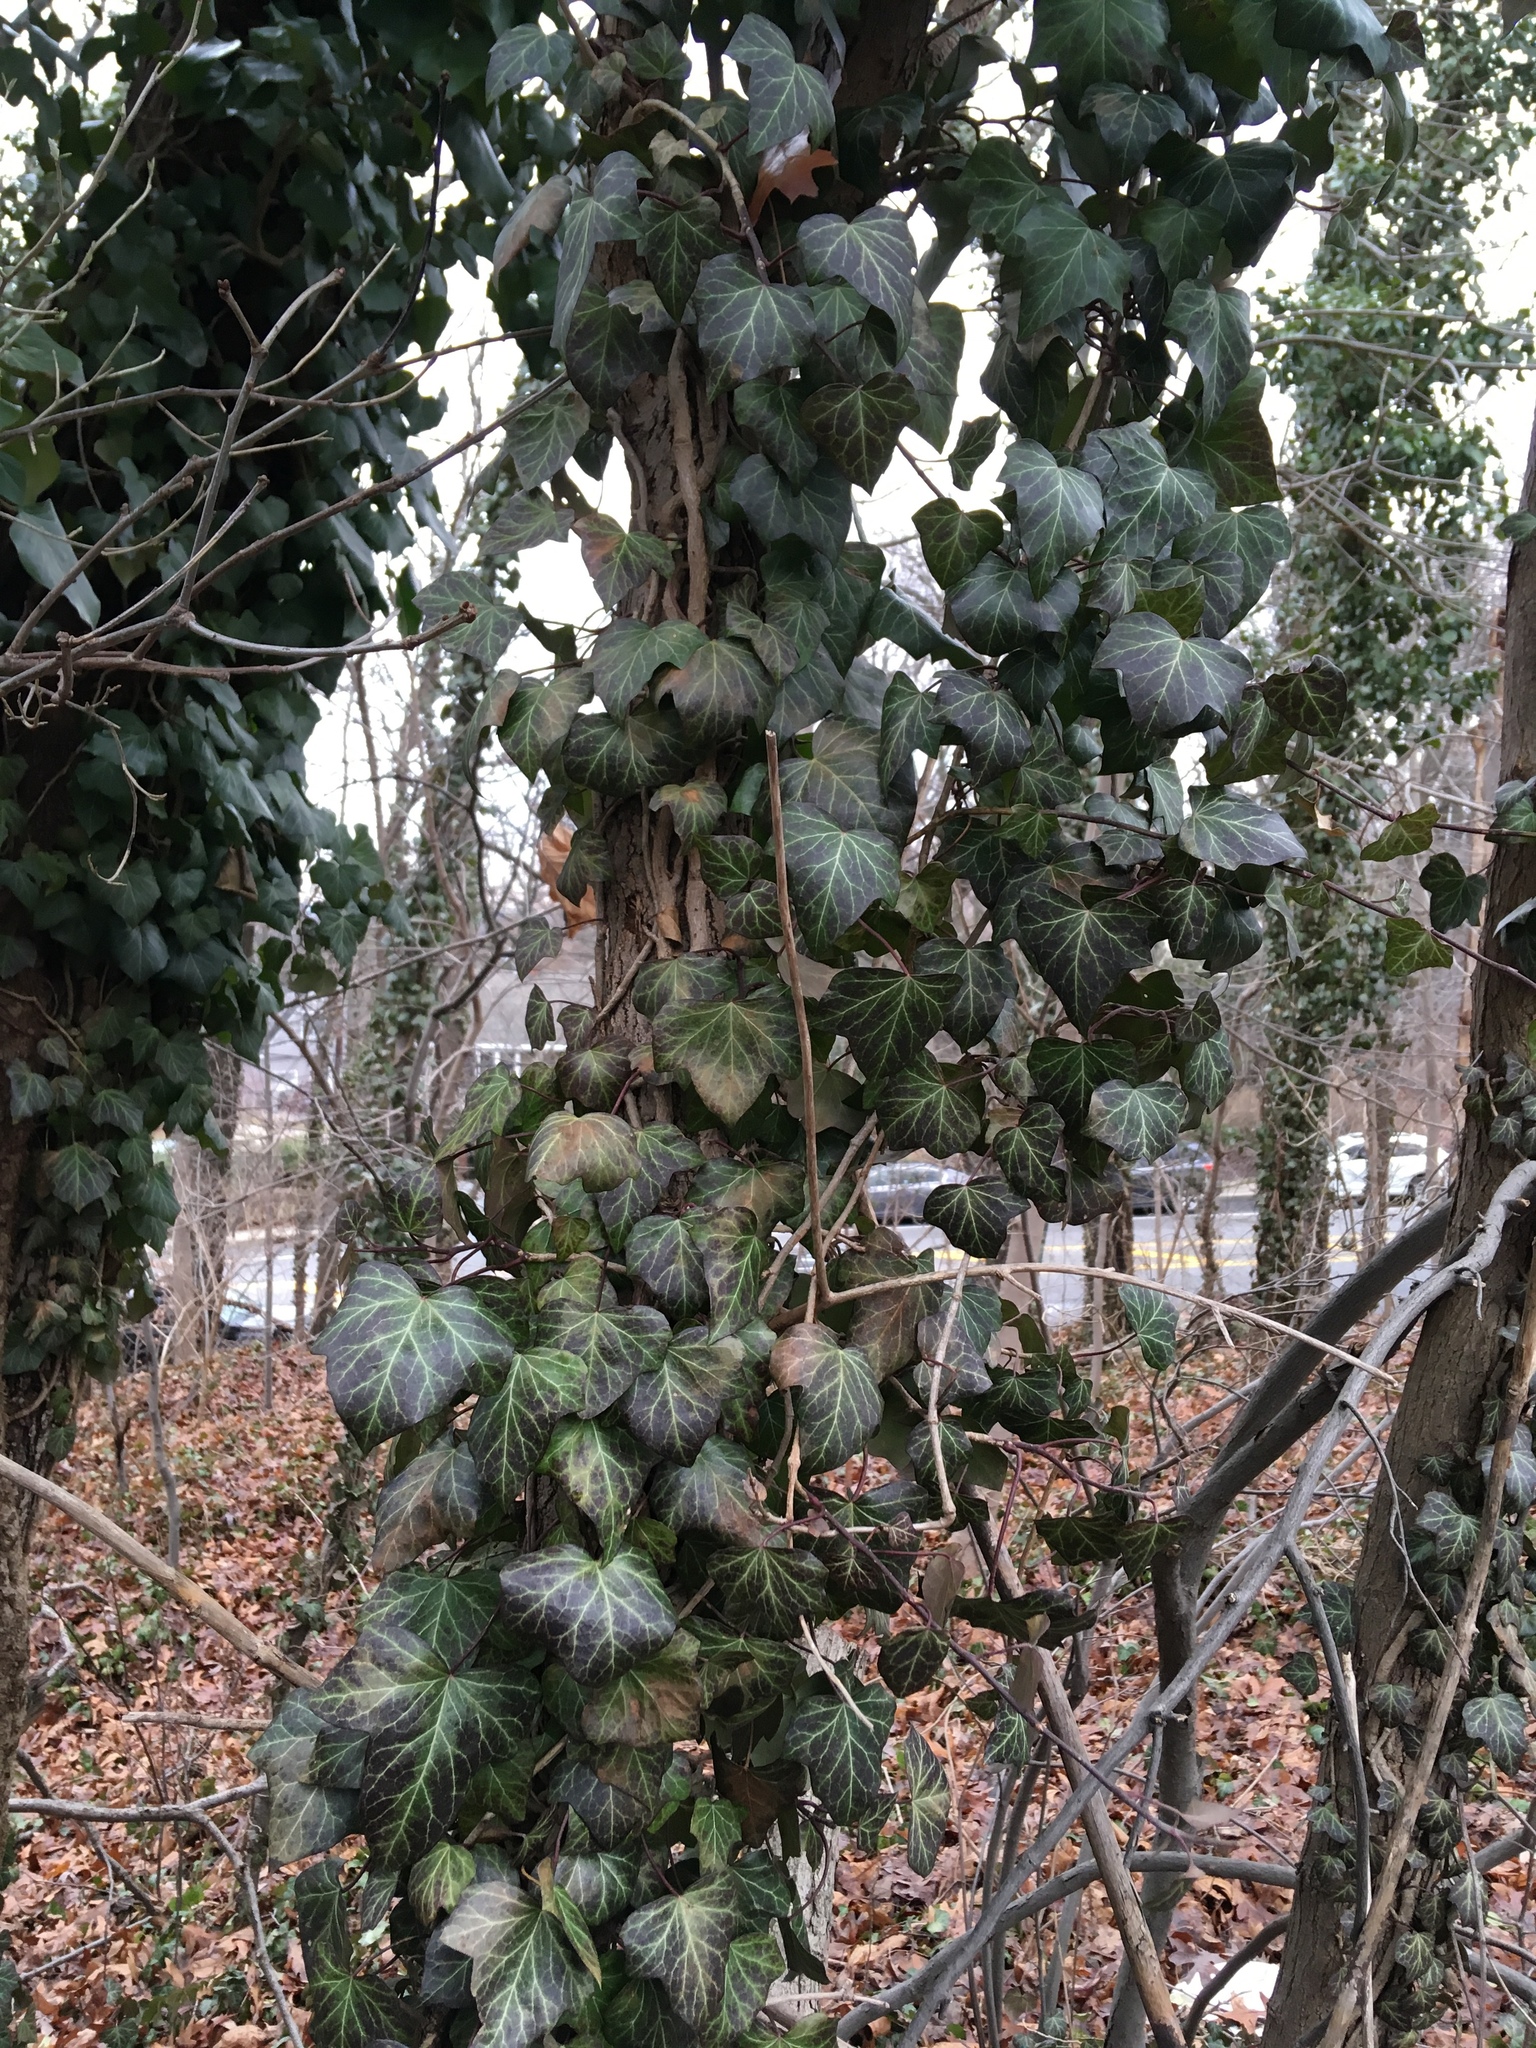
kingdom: Plantae
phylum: Tracheophyta
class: Magnoliopsida
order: Apiales
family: Araliaceae
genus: Hedera
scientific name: Hedera helix
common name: Ivy
